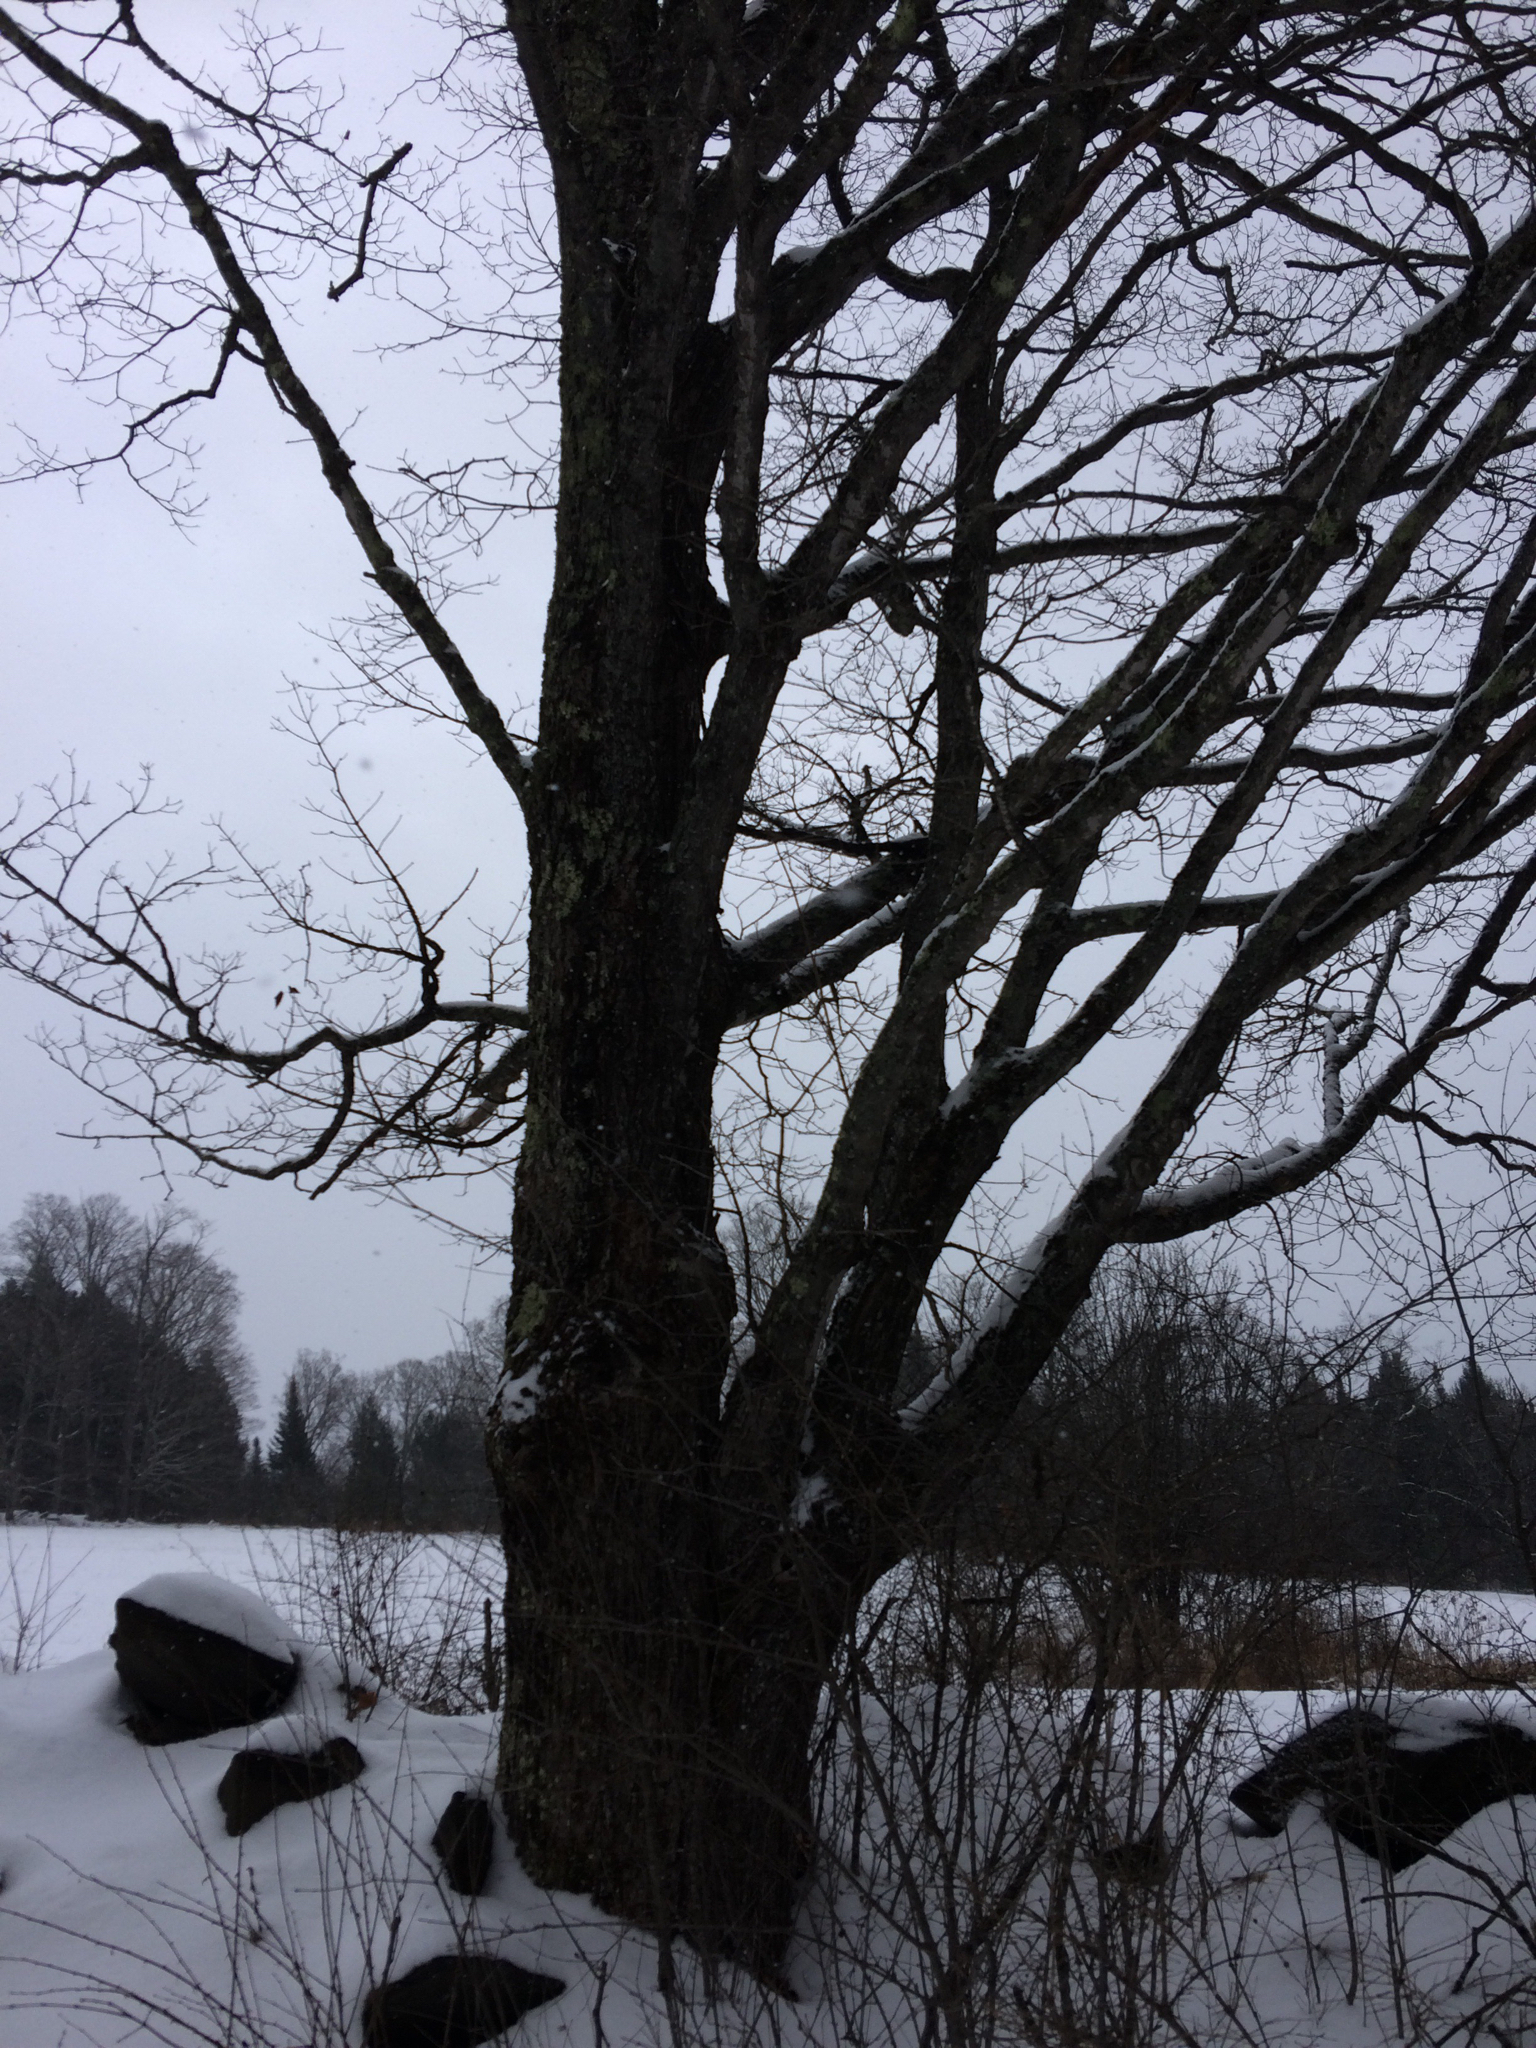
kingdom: Plantae
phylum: Tracheophyta
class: Magnoliopsida
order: Sapindales
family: Sapindaceae
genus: Acer
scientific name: Acer saccharum
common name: Sugar maple
